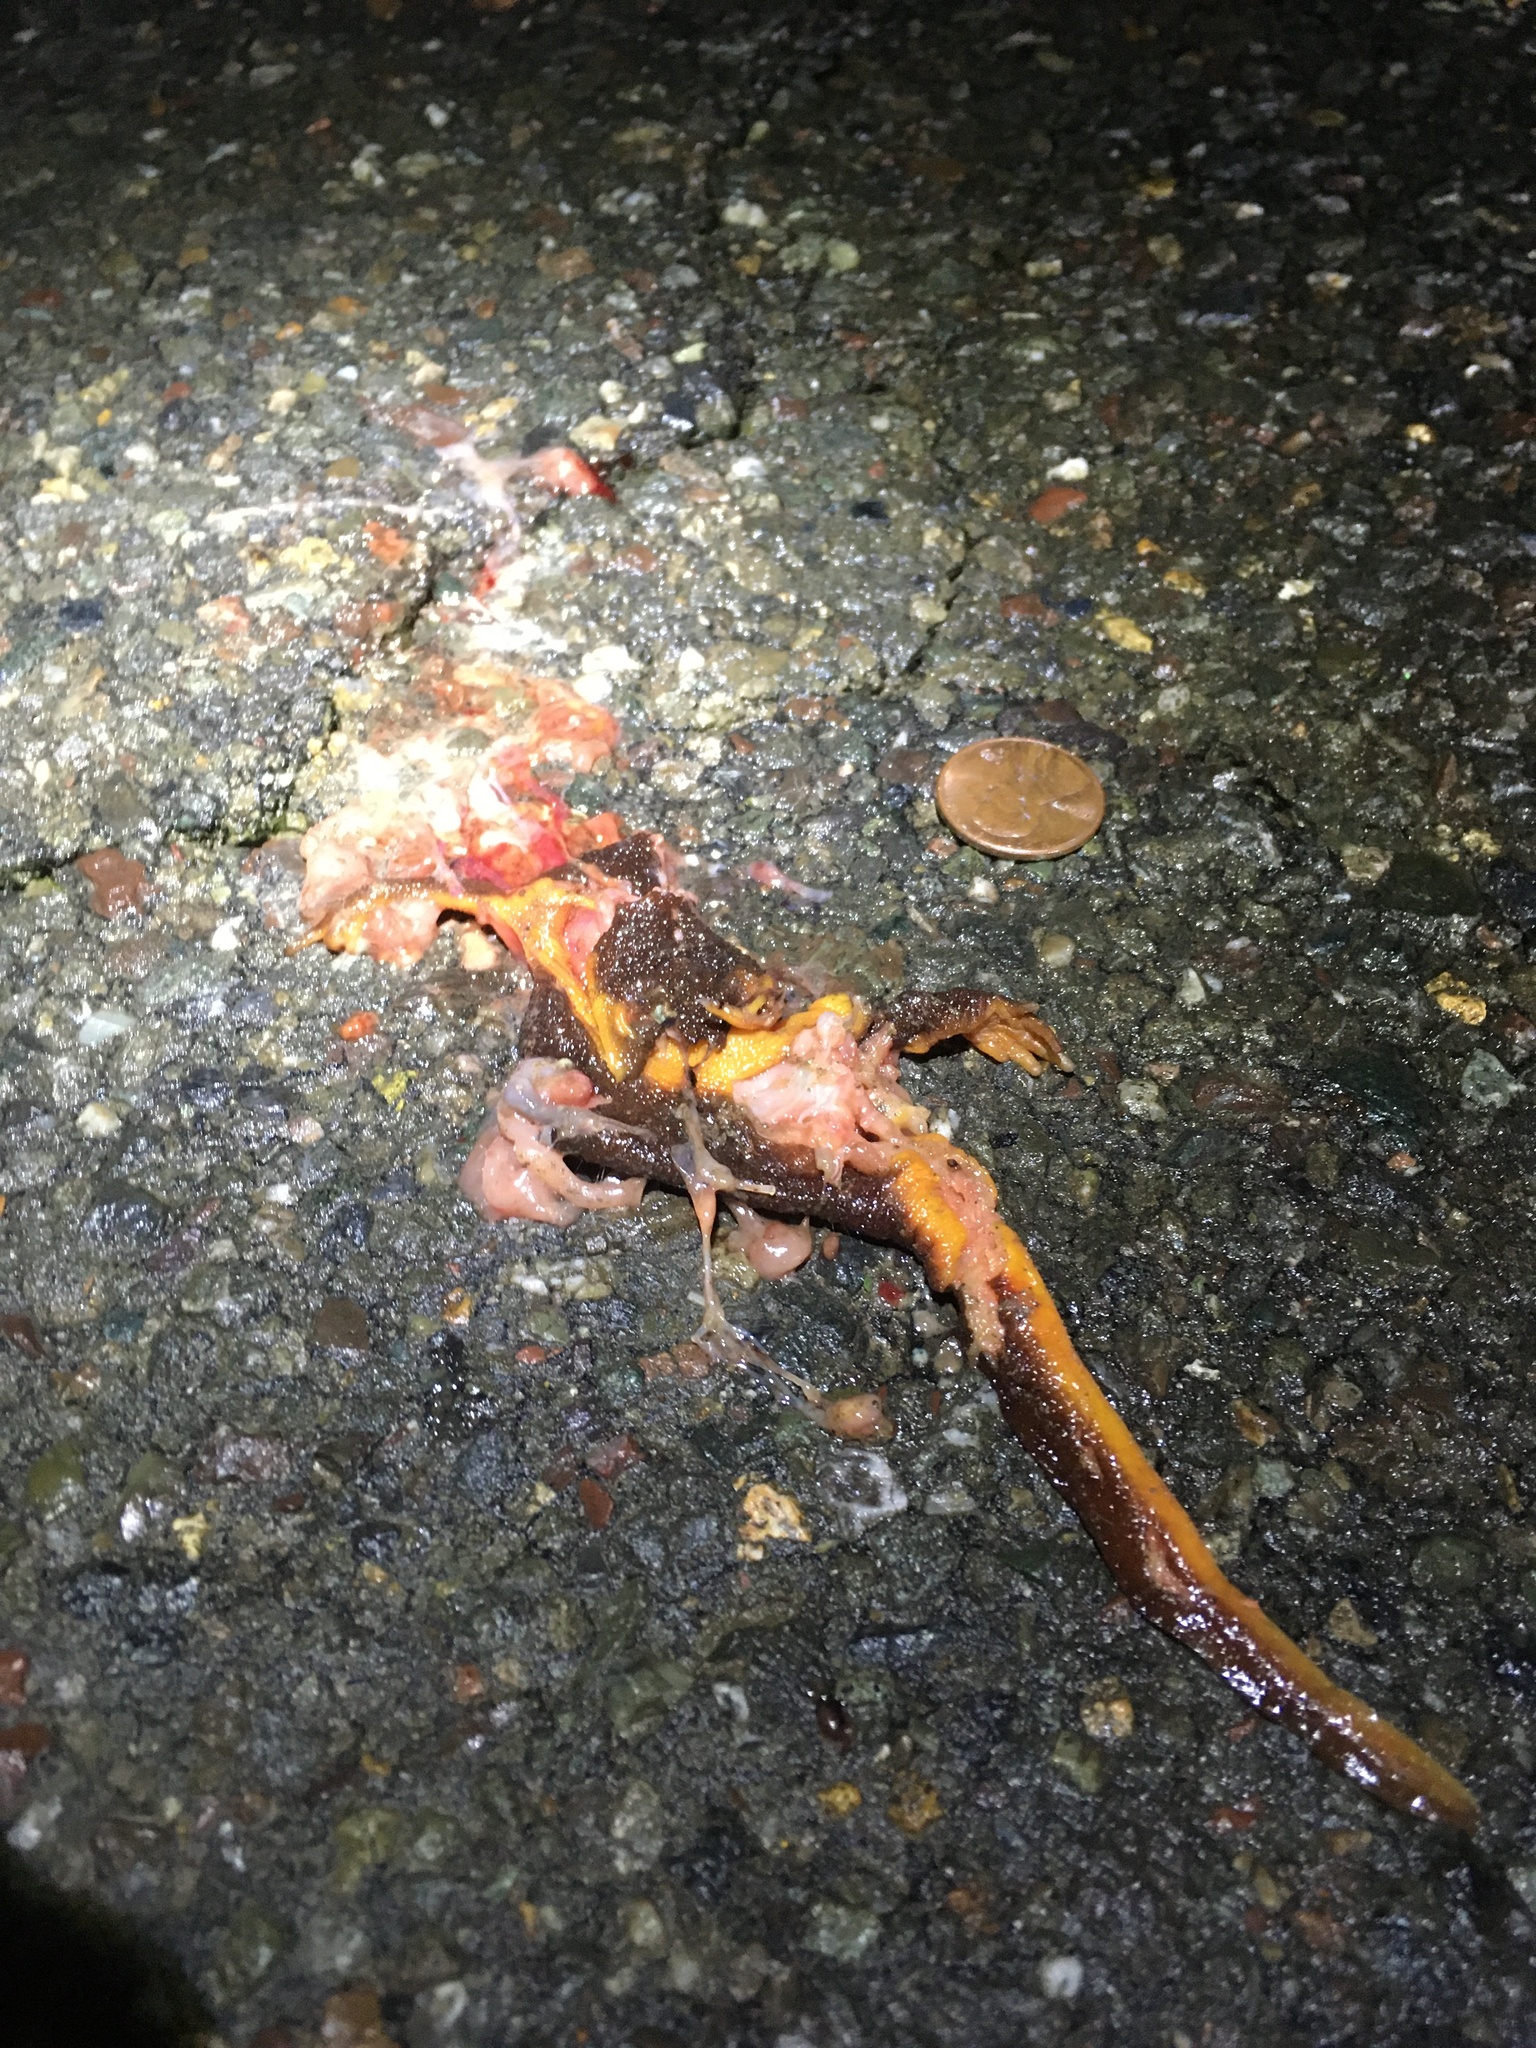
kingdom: Animalia
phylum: Chordata
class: Amphibia
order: Caudata
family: Salamandridae
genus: Taricha
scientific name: Taricha
